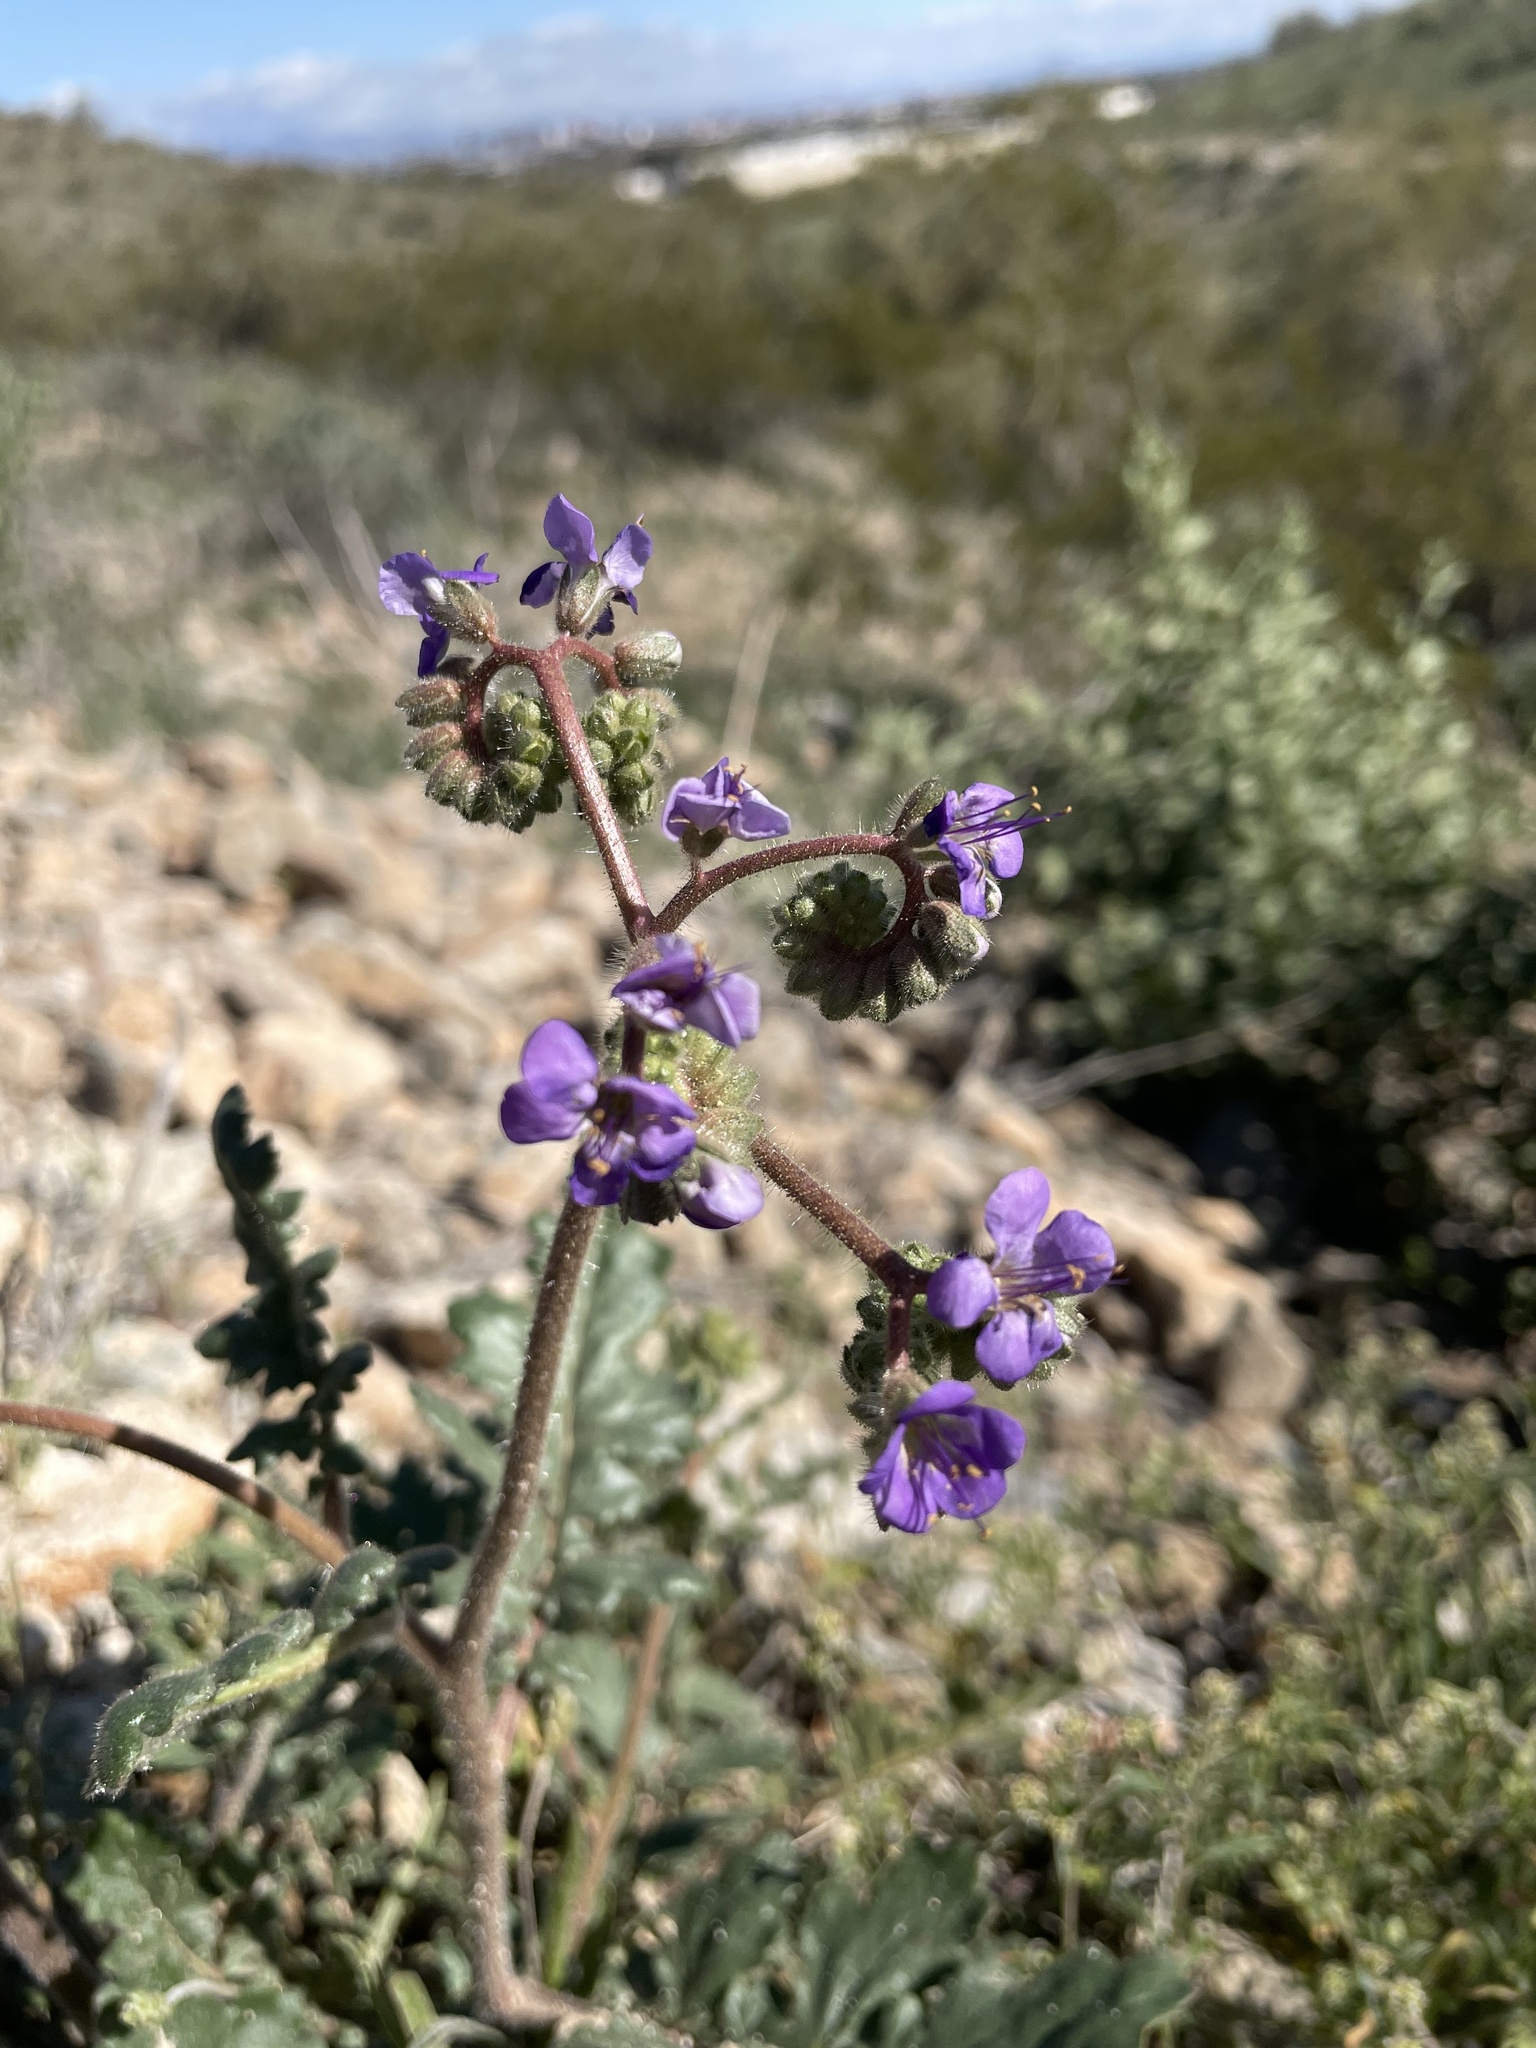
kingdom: Plantae
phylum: Tracheophyta
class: Magnoliopsida
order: Boraginales
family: Hydrophyllaceae
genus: Phacelia
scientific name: Phacelia crenulata
